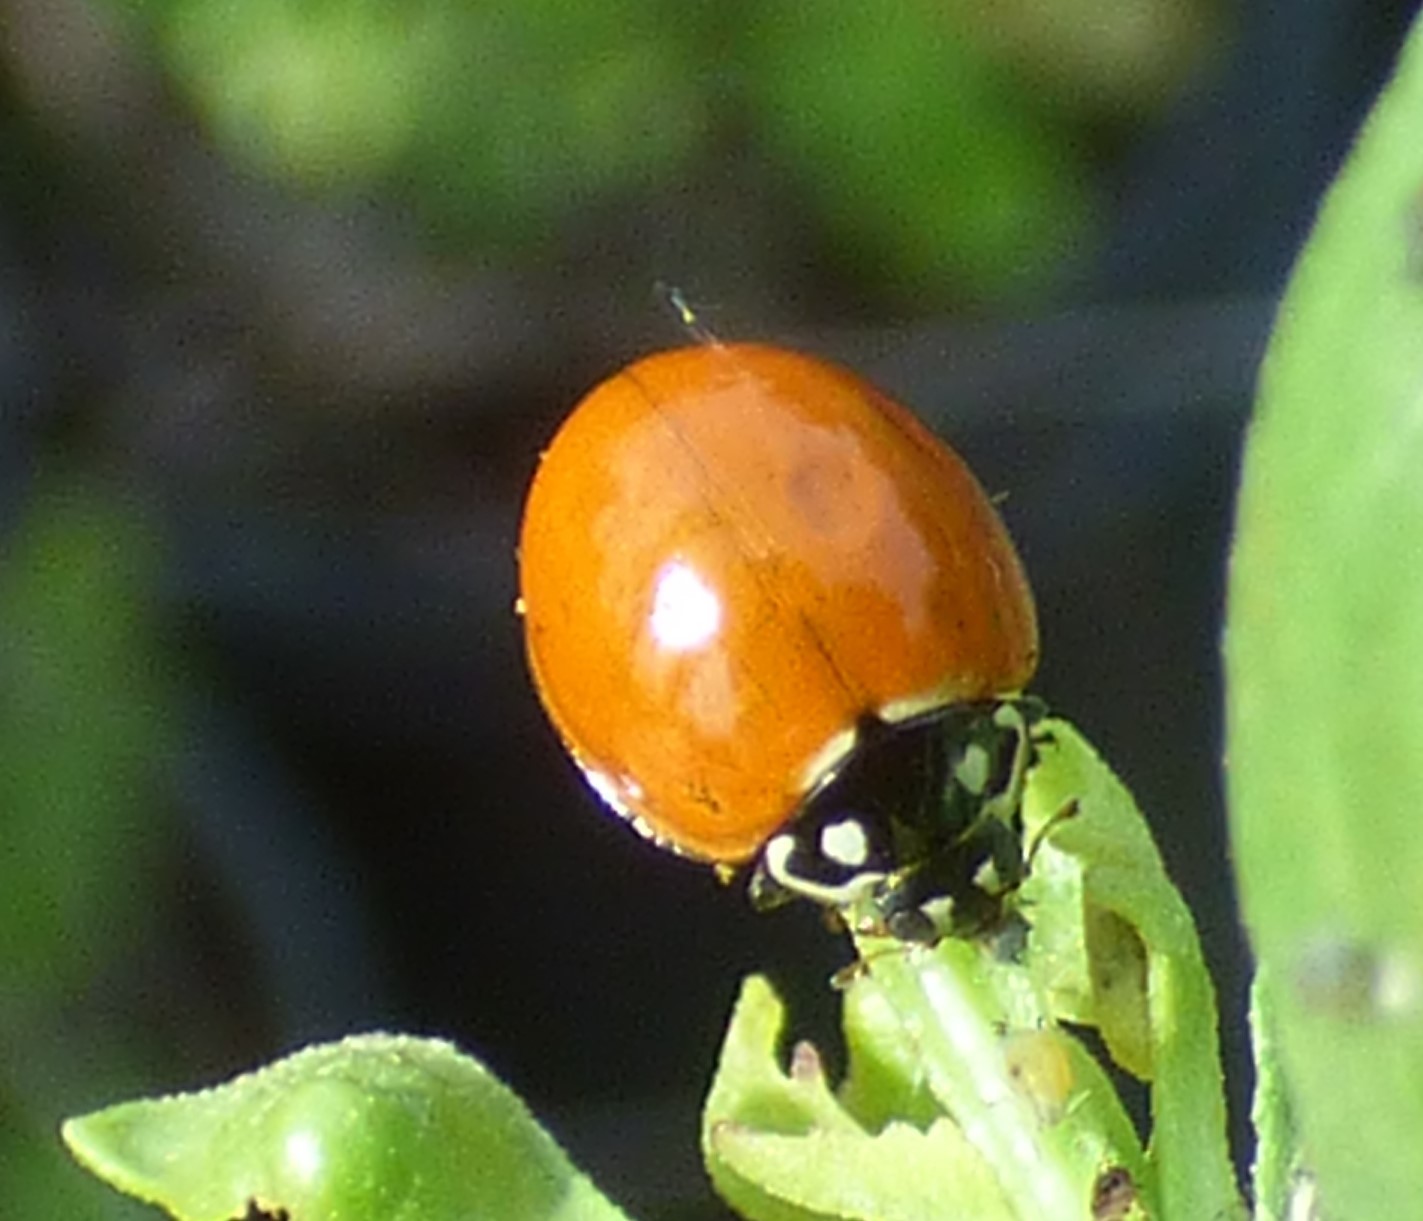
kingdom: Animalia
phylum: Arthropoda
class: Insecta
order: Coleoptera
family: Coccinellidae
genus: Cycloneda
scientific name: Cycloneda sanguinea
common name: Ladybird beetle
